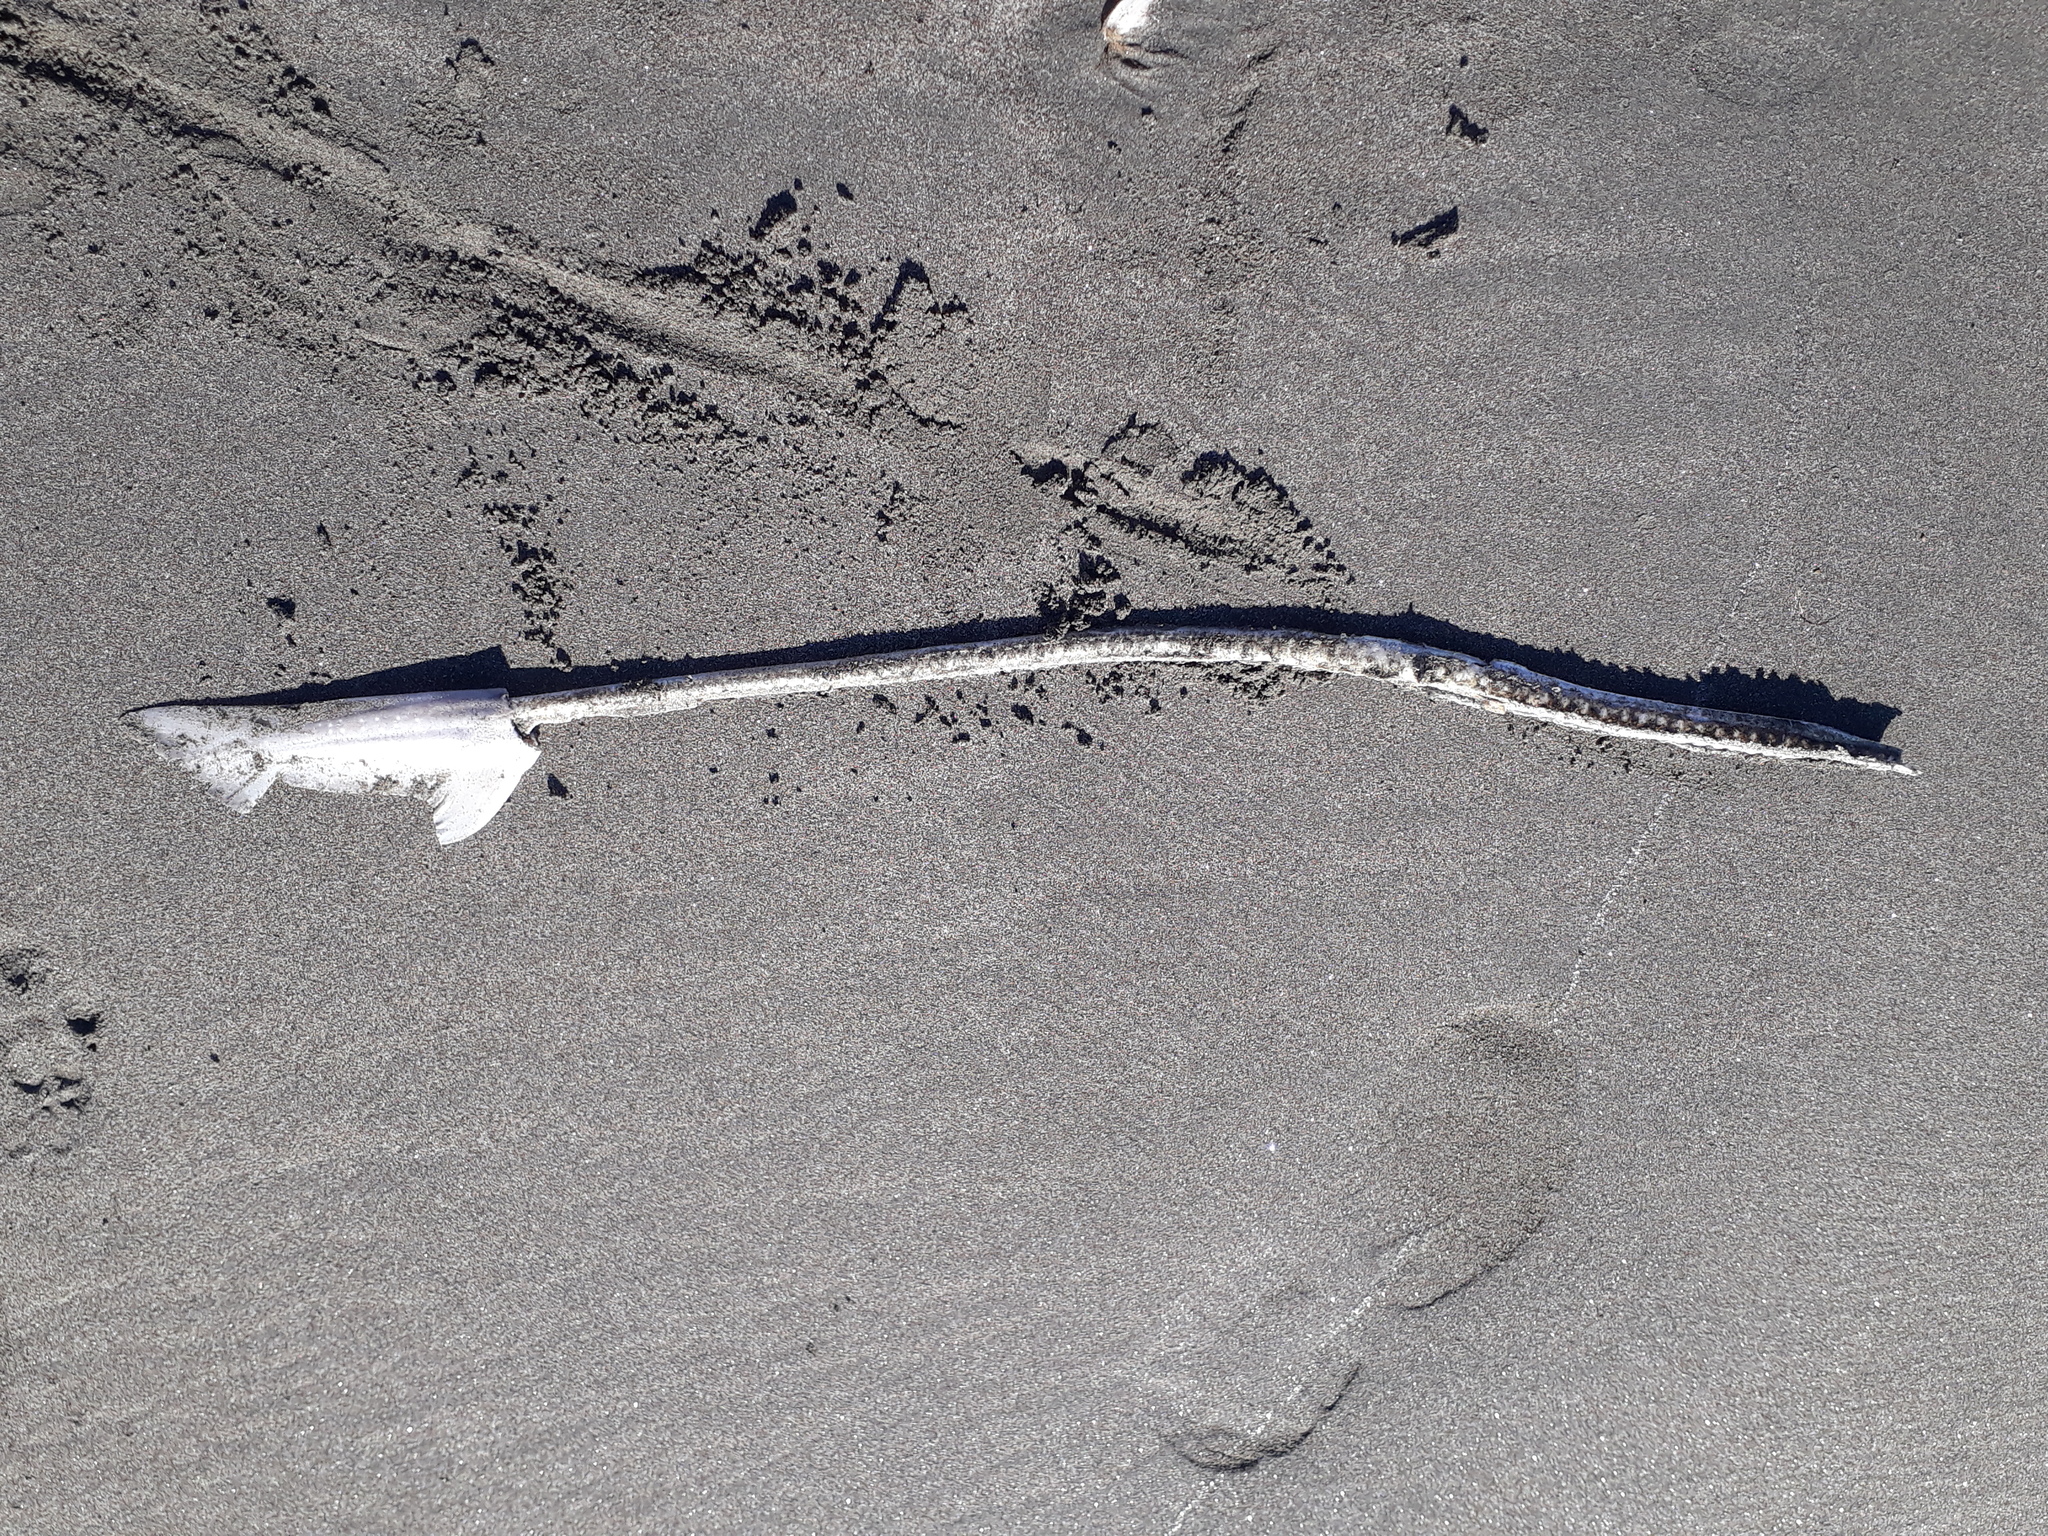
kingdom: Animalia
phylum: Chordata
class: Elasmobranchii
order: Carcharhiniformes
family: Triakidae
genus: Mustelus
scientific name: Mustelus lenticulatus
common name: Gummy shark
